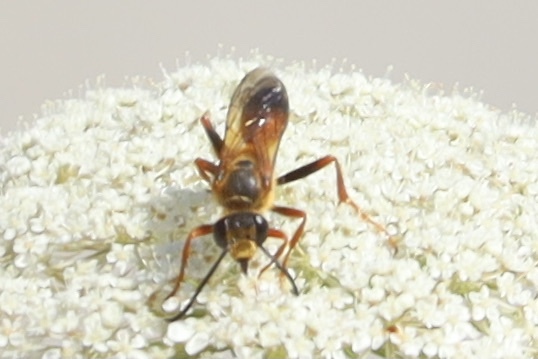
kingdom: Animalia
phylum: Arthropoda
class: Insecta
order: Hymenoptera
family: Sphecidae
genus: Sphex
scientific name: Sphex ichneumoneus
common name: Great golden digger wasp
